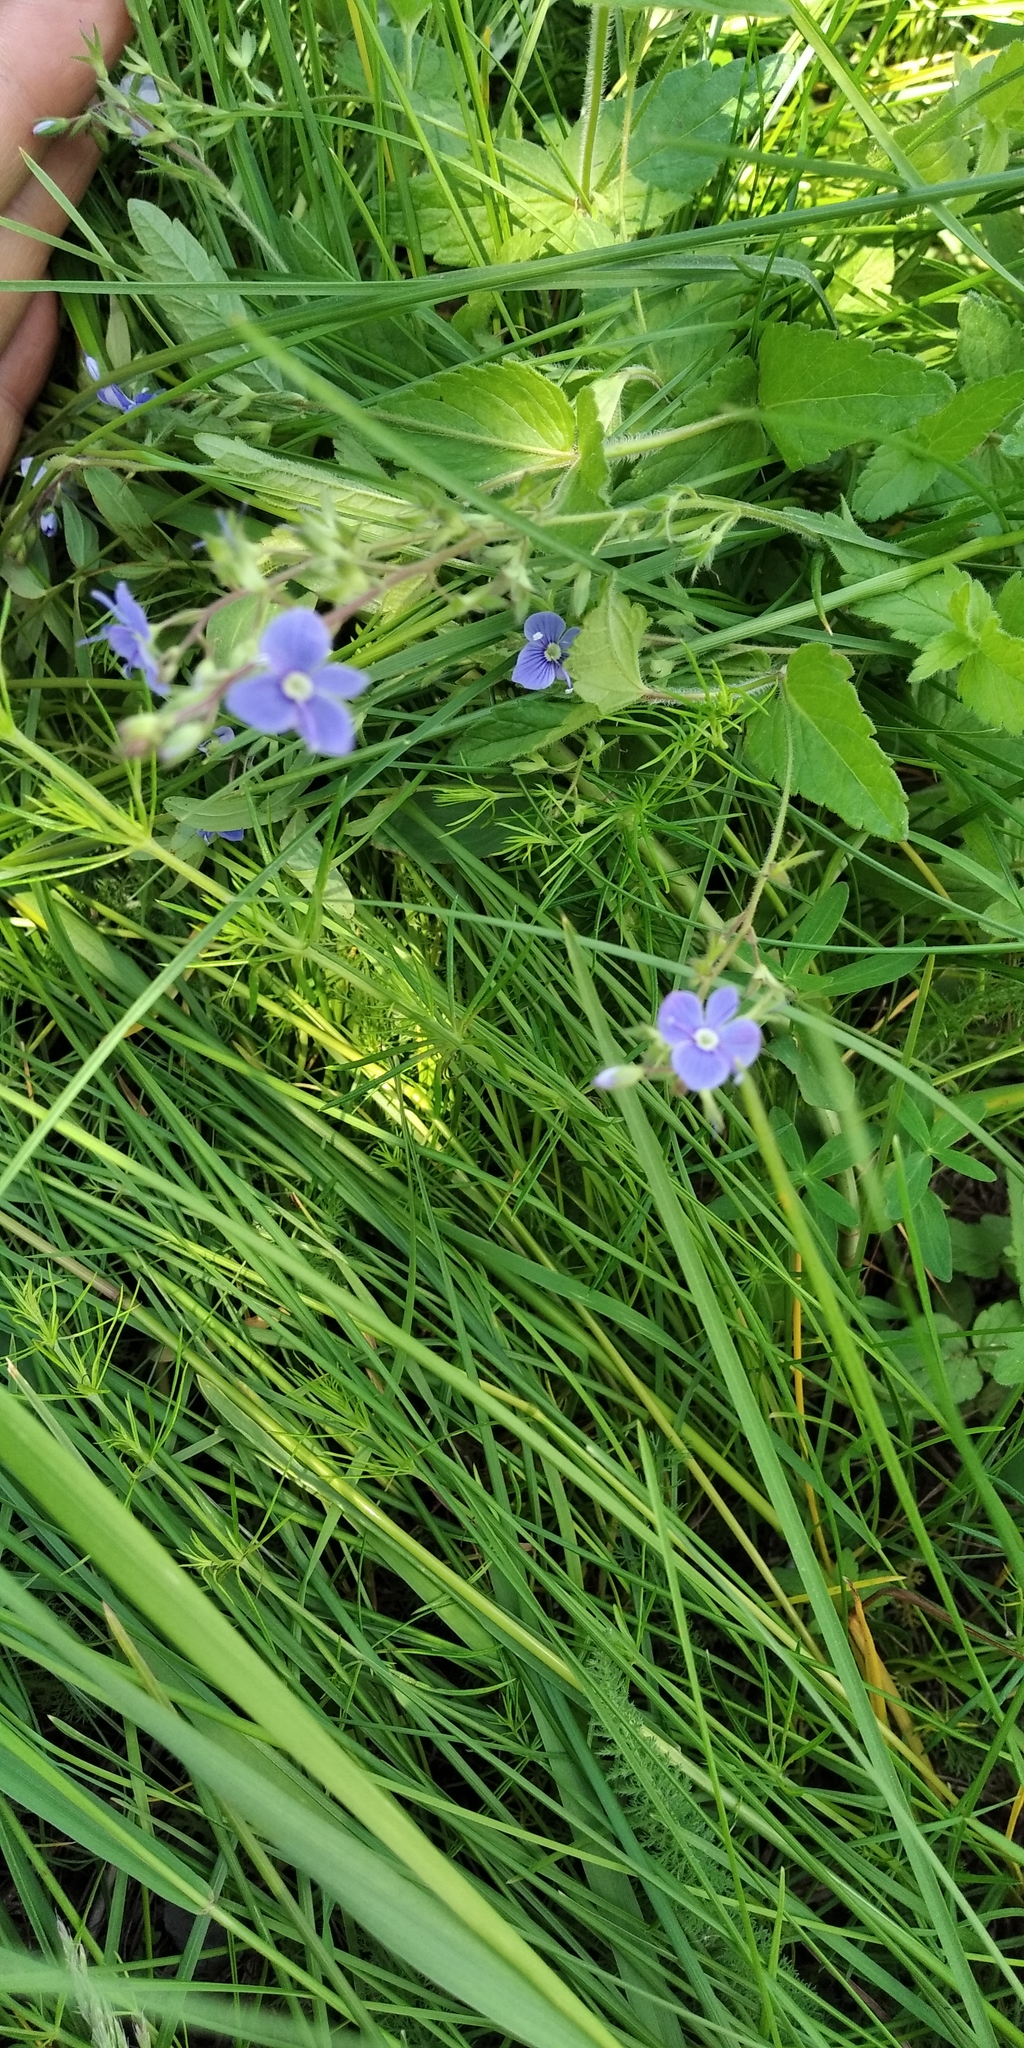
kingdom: Plantae
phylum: Tracheophyta
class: Magnoliopsida
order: Lamiales
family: Plantaginaceae
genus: Veronica
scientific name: Veronica chamaedrys
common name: Germander speedwell
